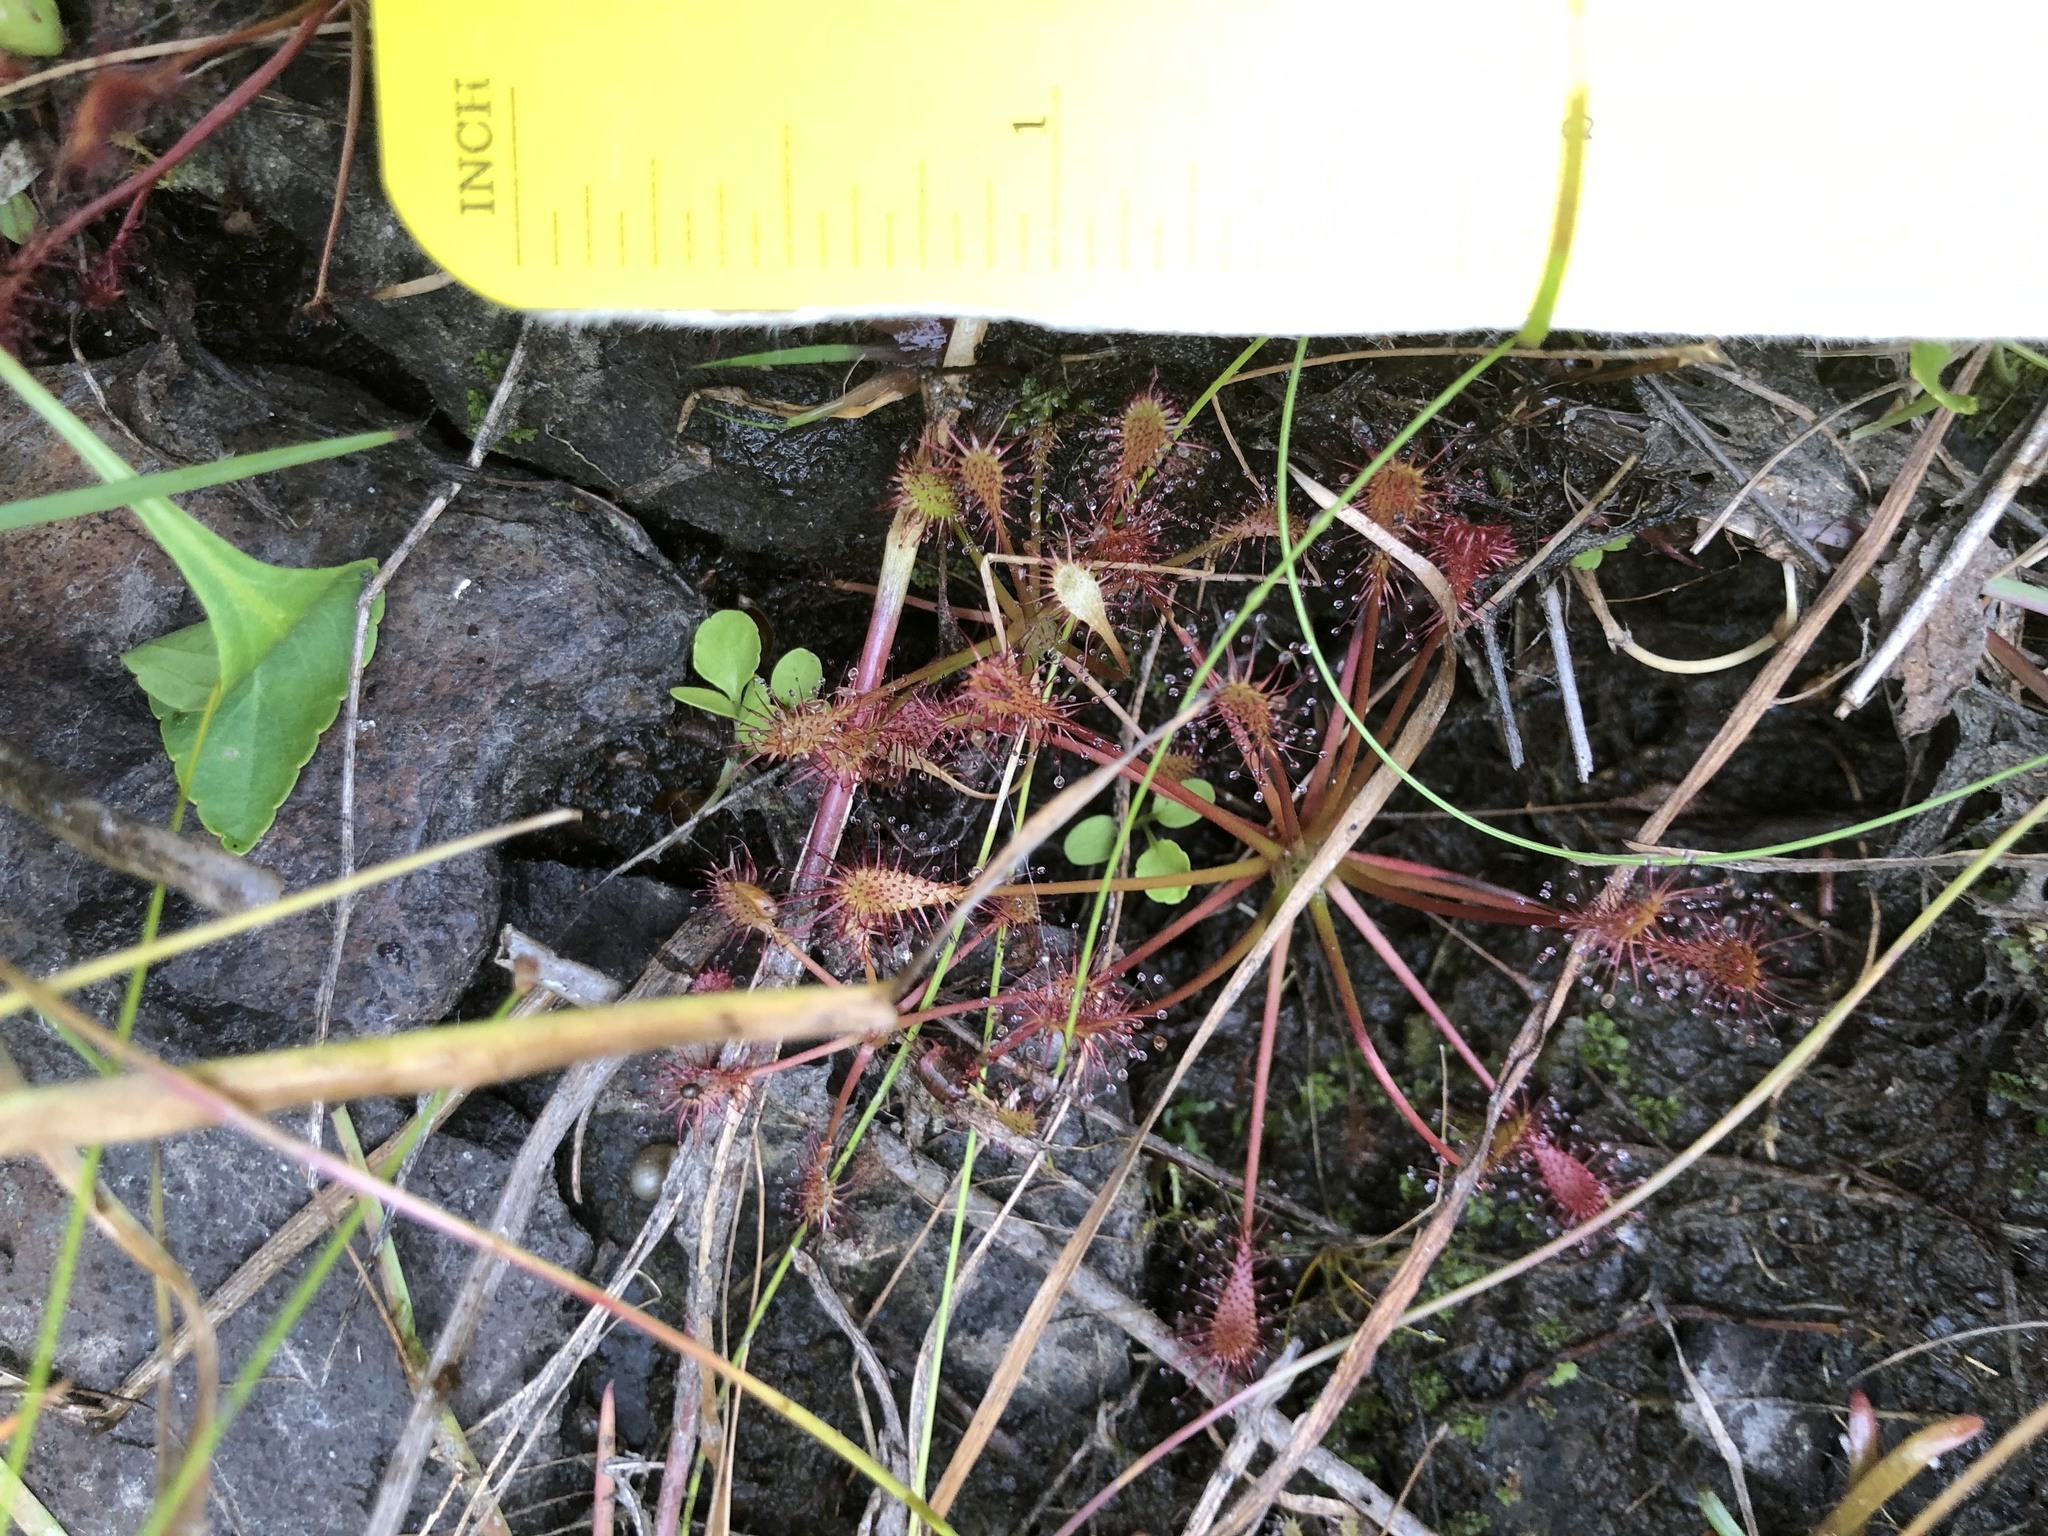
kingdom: Plantae
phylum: Tracheophyta
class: Magnoliopsida
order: Caryophyllales
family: Droseraceae
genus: Drosera
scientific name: Drosera intermedia
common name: Oblong-leaved sundew
